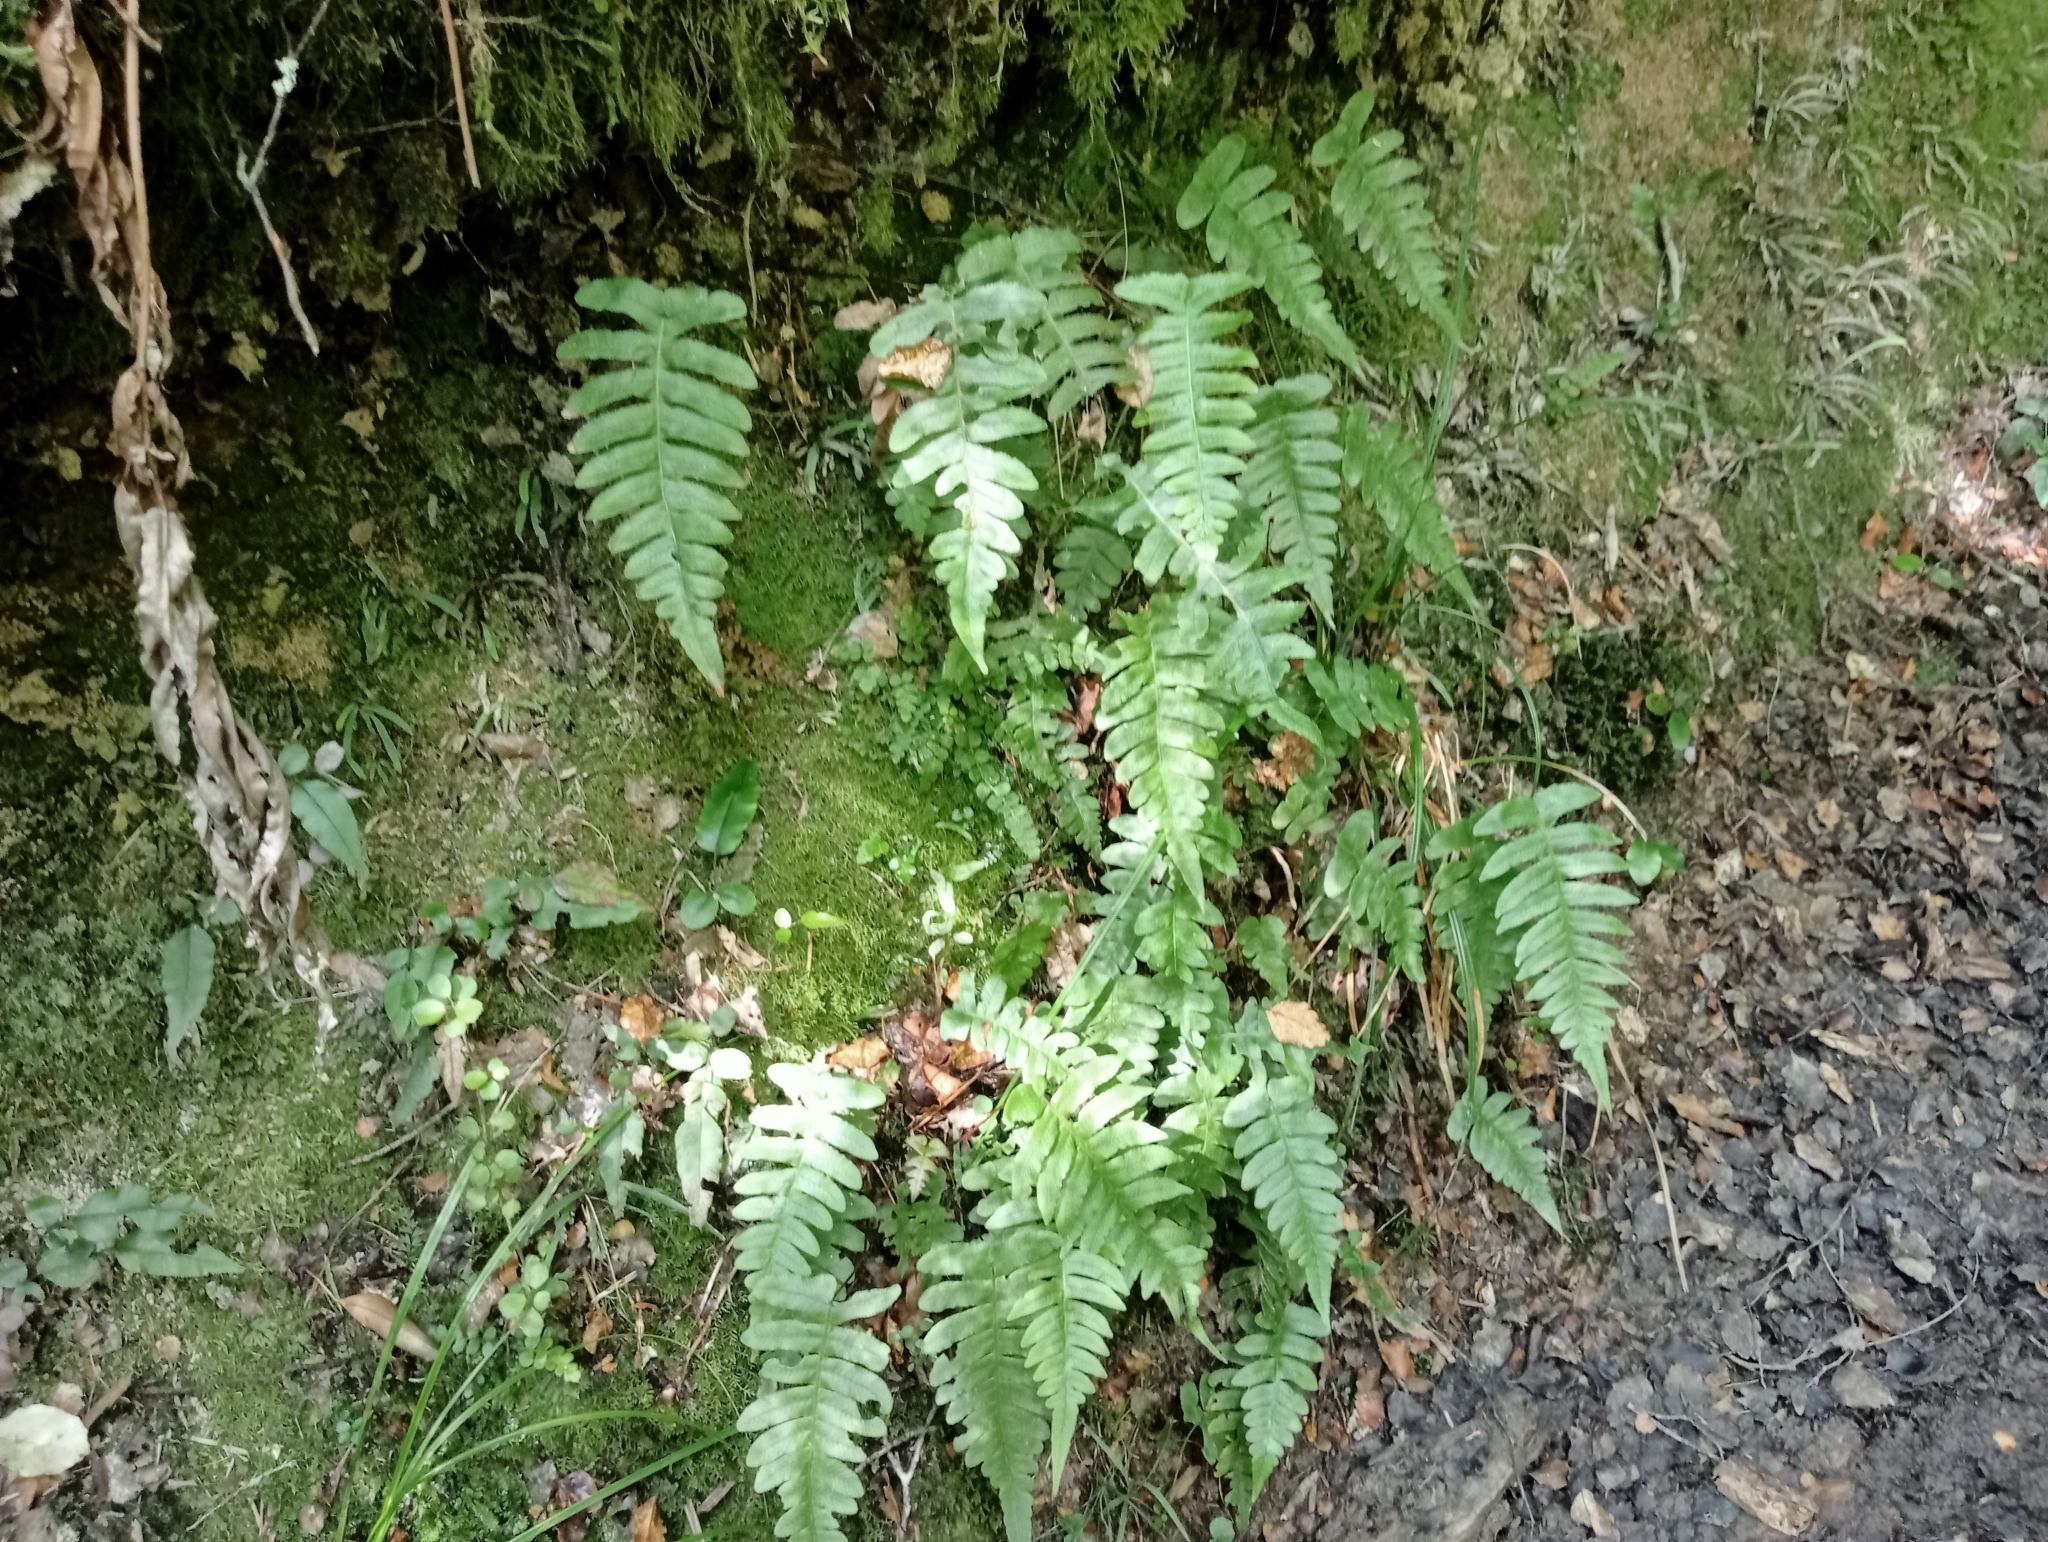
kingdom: Plantae
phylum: Tracheophyta
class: Polypodiopsida
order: Polypodiales
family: Blechnaceae
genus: Cranfillia
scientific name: Cranfillia deltoides
